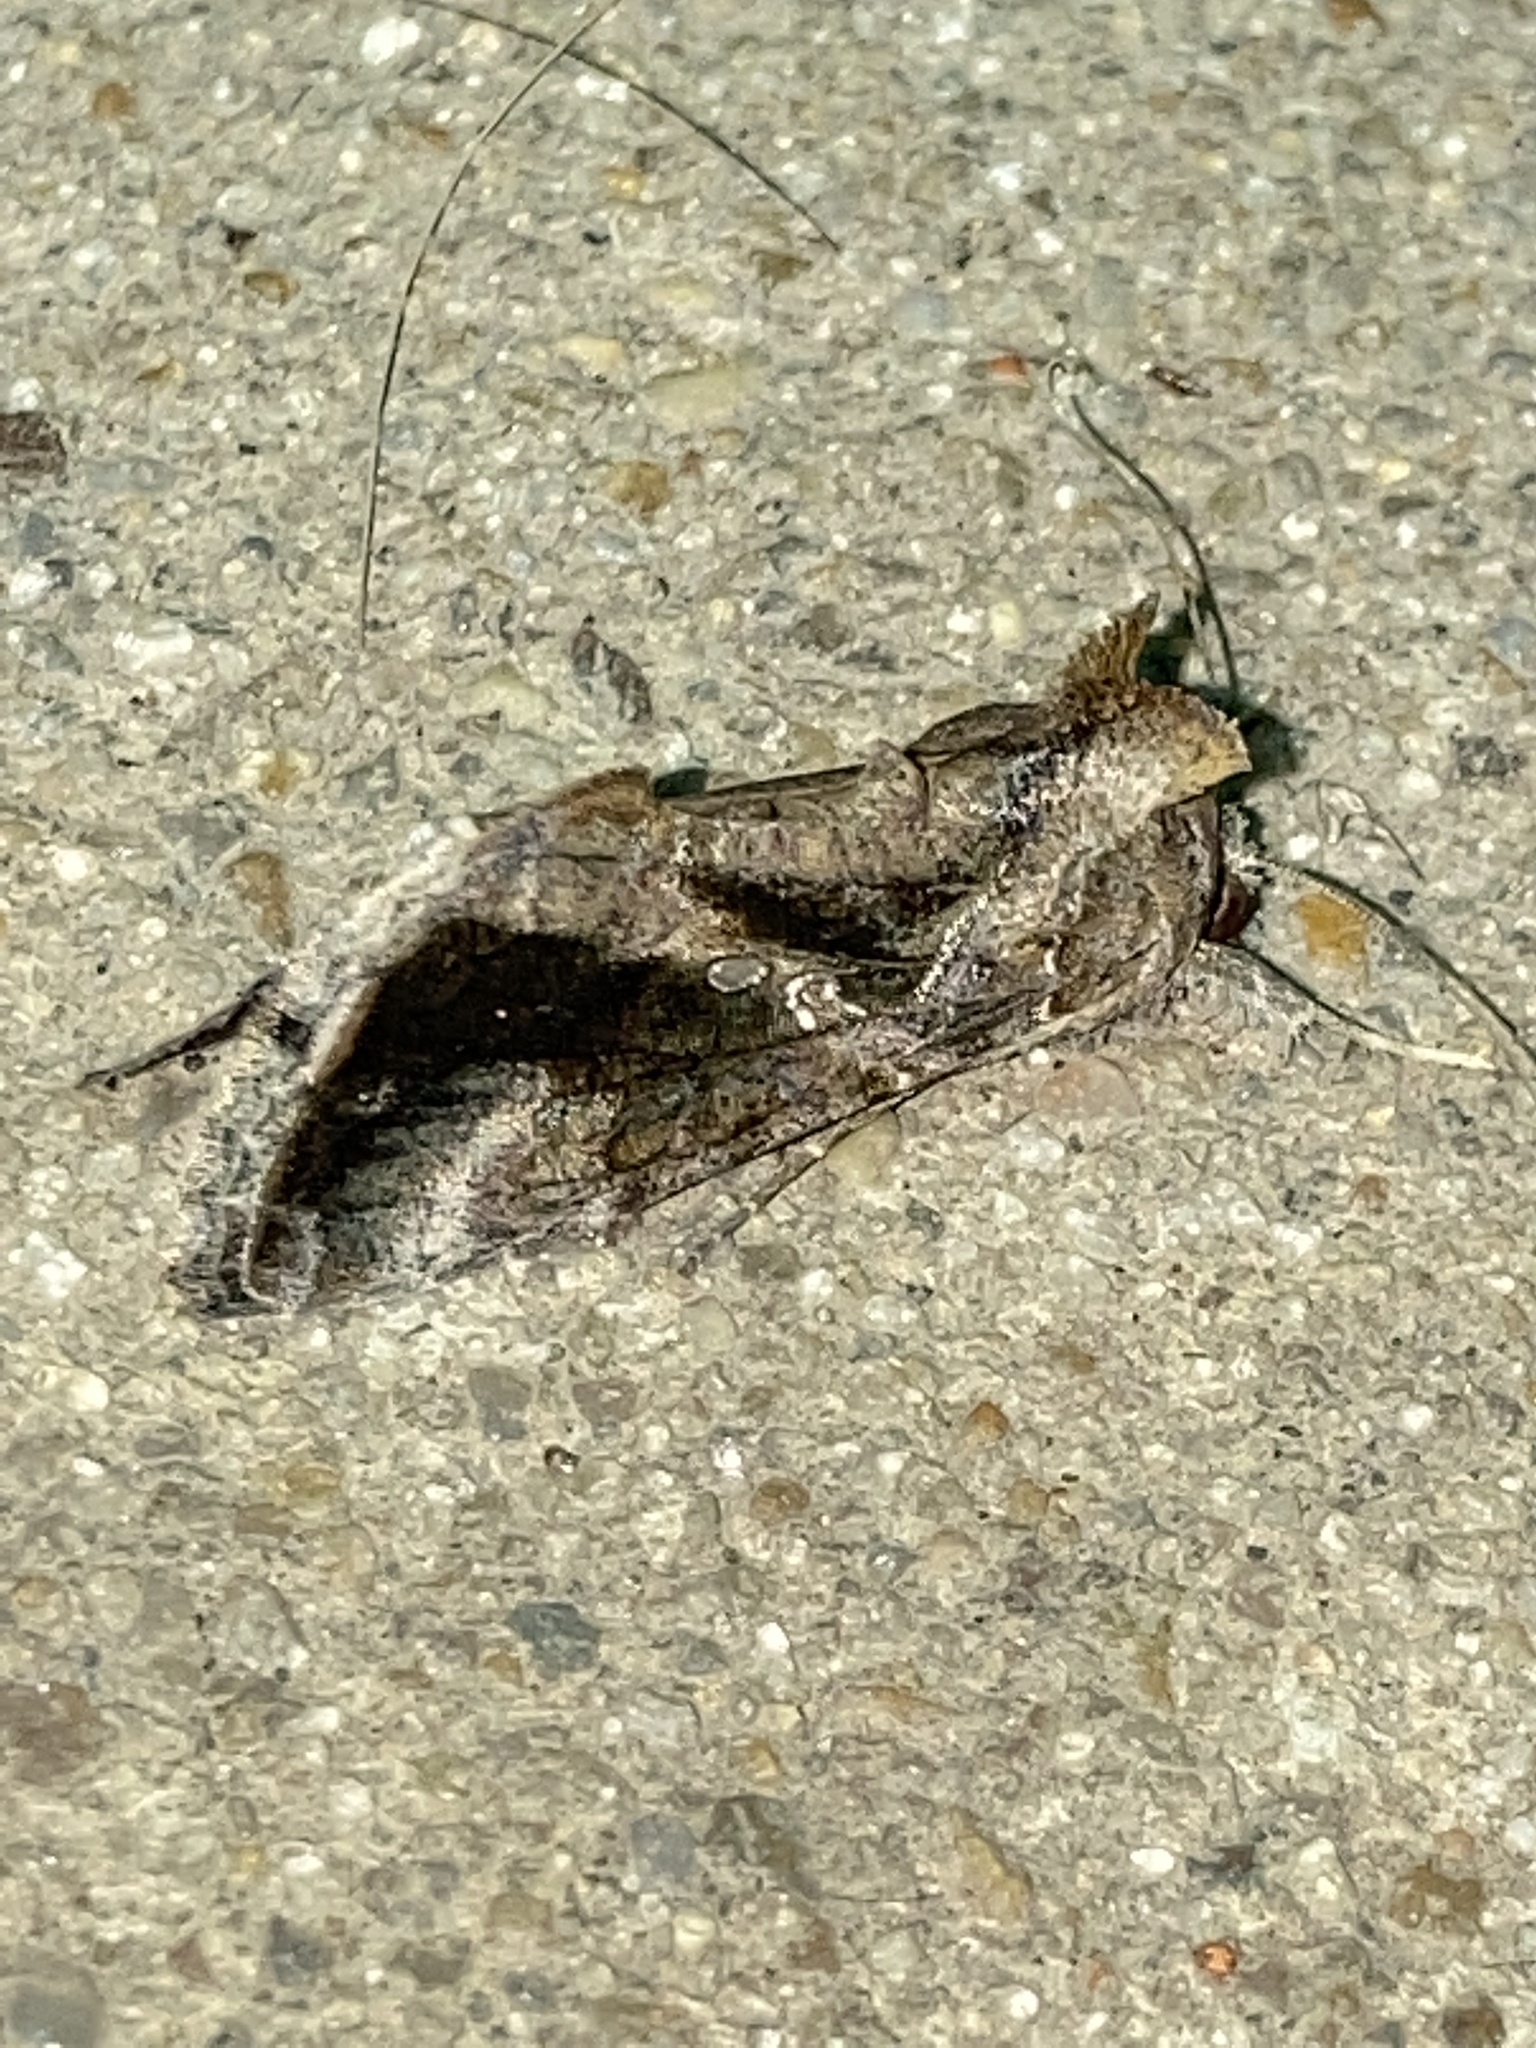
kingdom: Animalia
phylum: Arthropoda
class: Insecta
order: Lepidoptera
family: Noctuidae
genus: Chrysodeixis
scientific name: Chrysodeixis includens
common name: Cutworm moth
